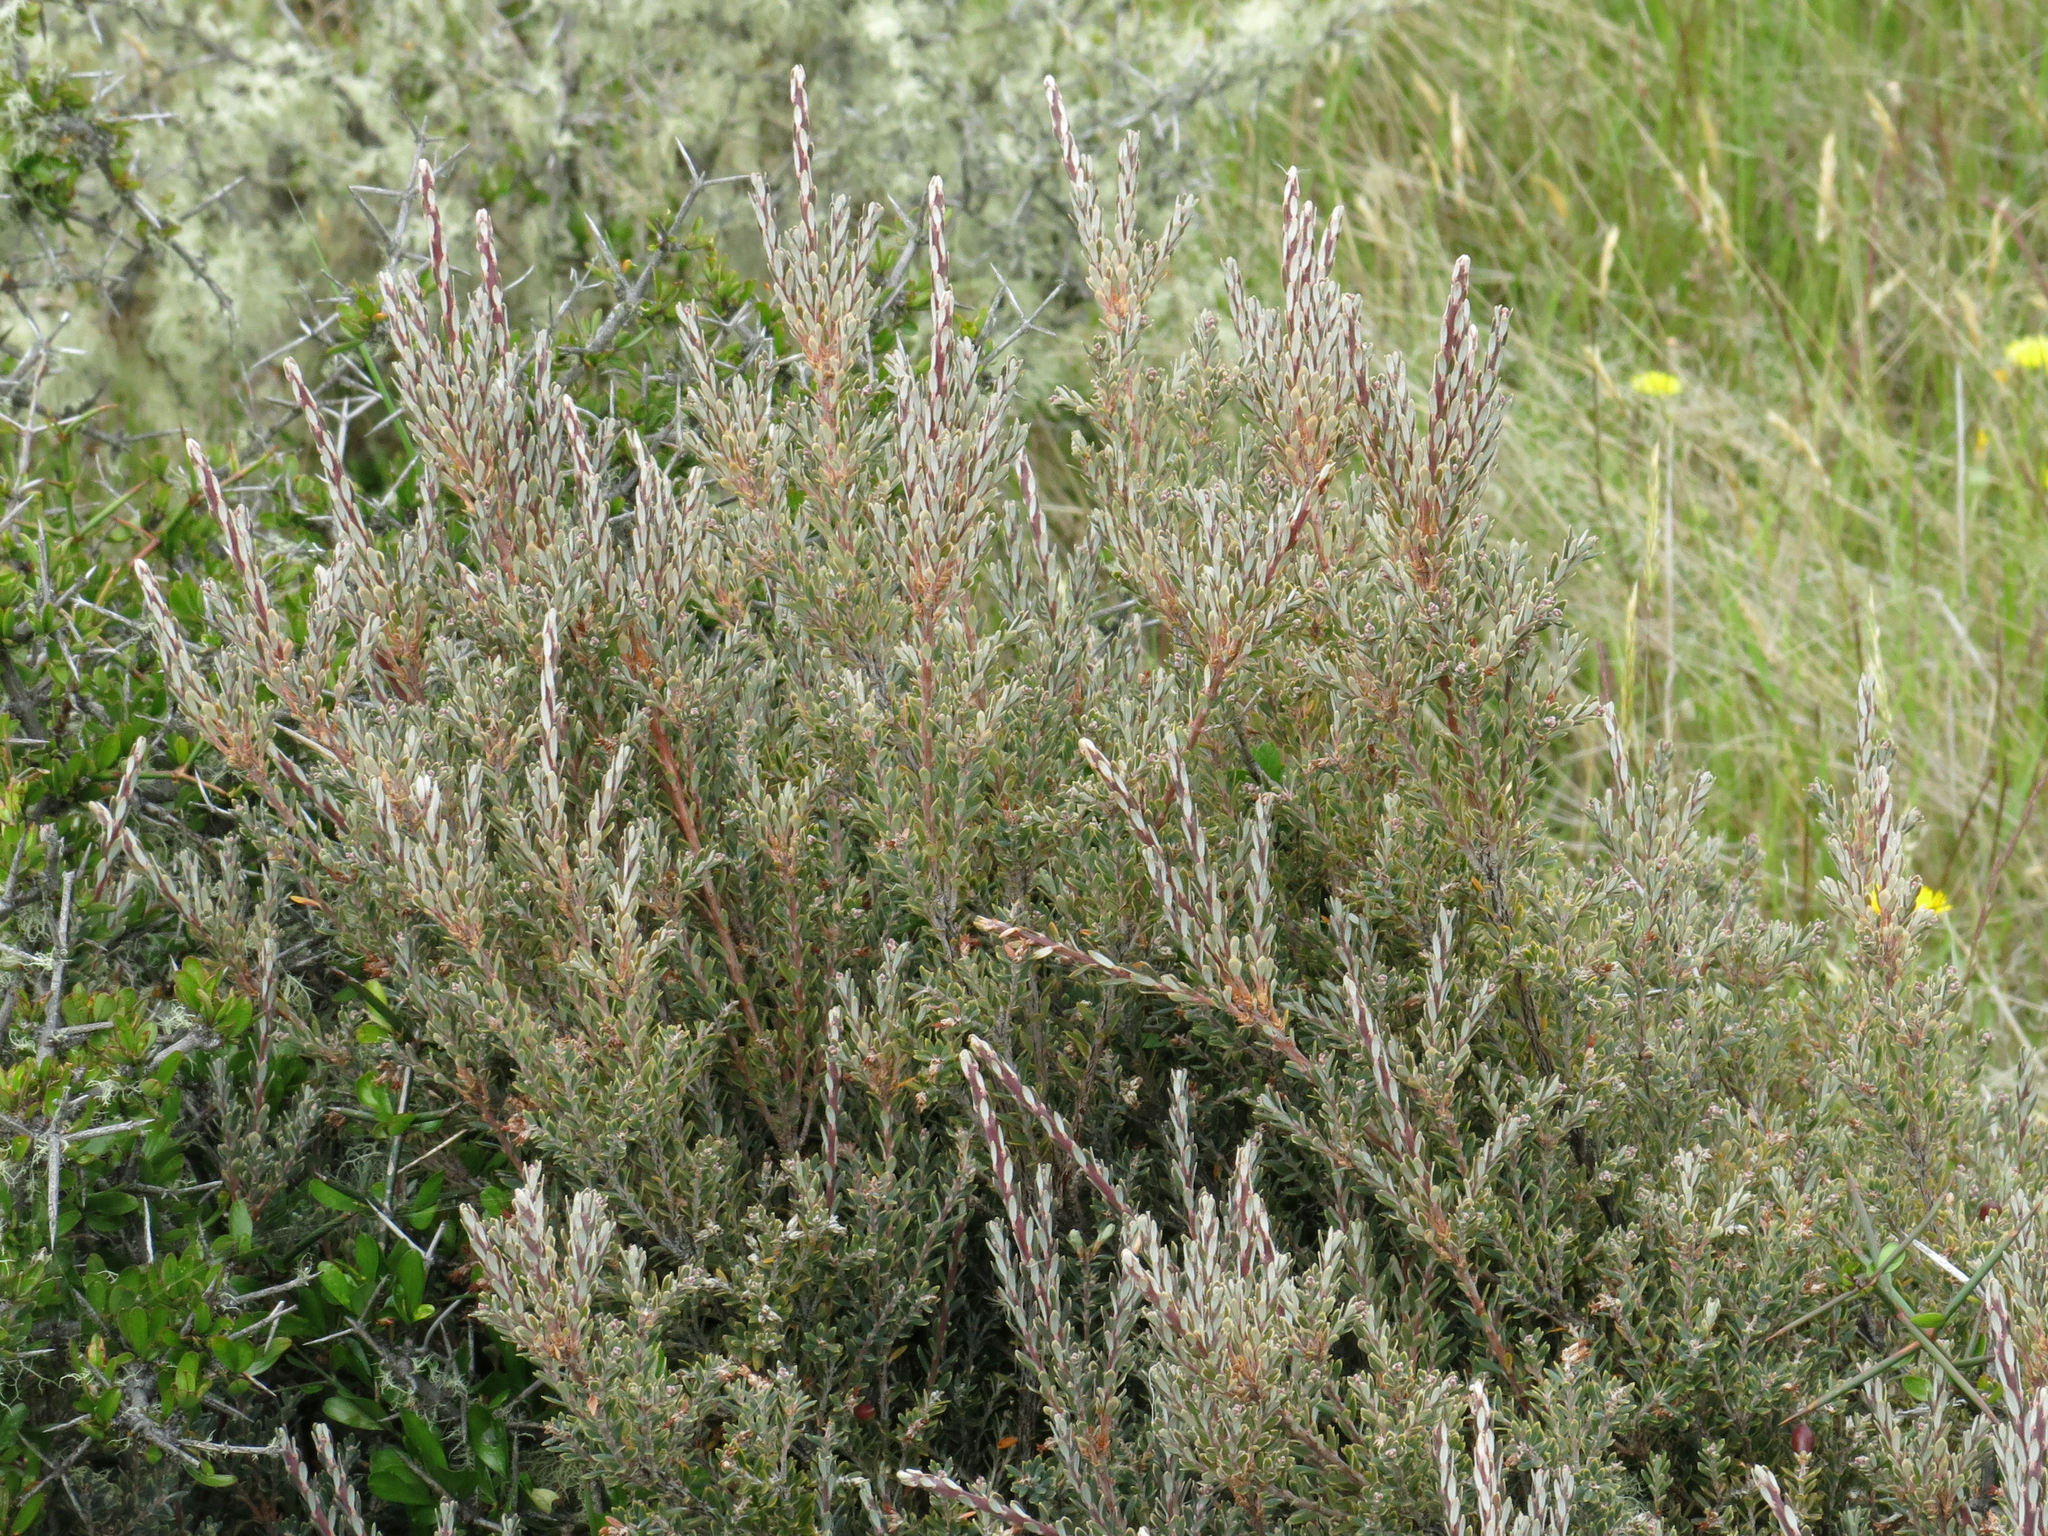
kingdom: Plantae
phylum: Tracheophyta
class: Magnoliopsida
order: Ericales
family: Ericaceae
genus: Acrothamnus
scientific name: Acrothamnus colensoi
